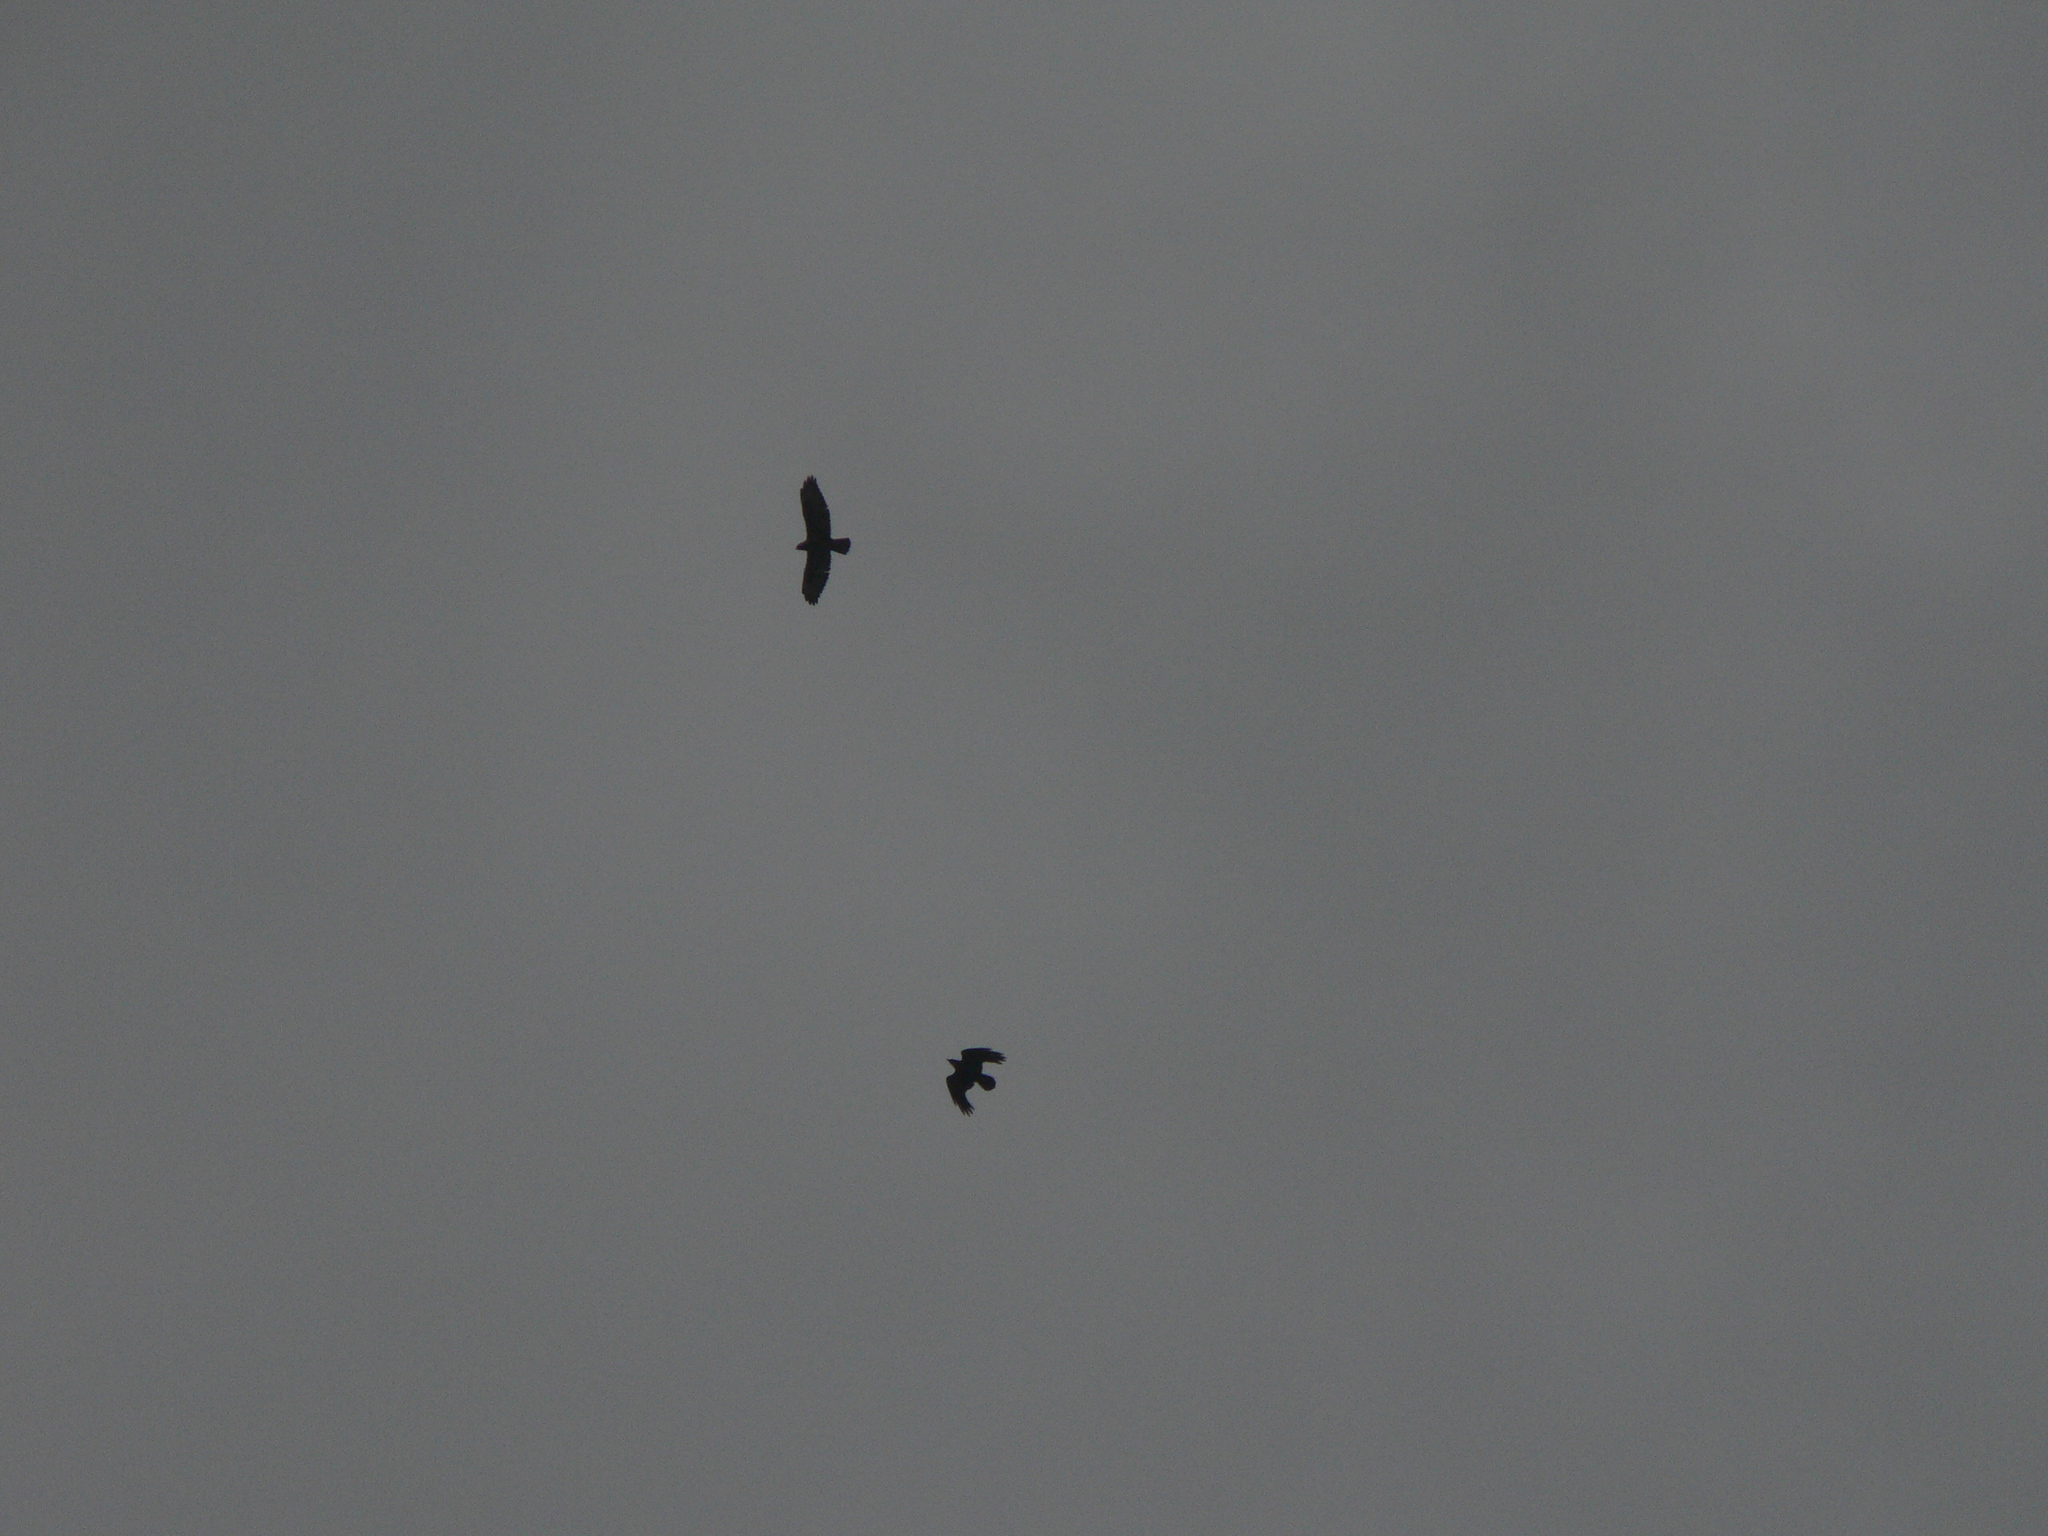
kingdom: Animalia
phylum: Chordata
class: Aves
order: Accipitriformes
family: Accipitridae
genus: Buteo
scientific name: Buteo buteo
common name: Common buzzard
